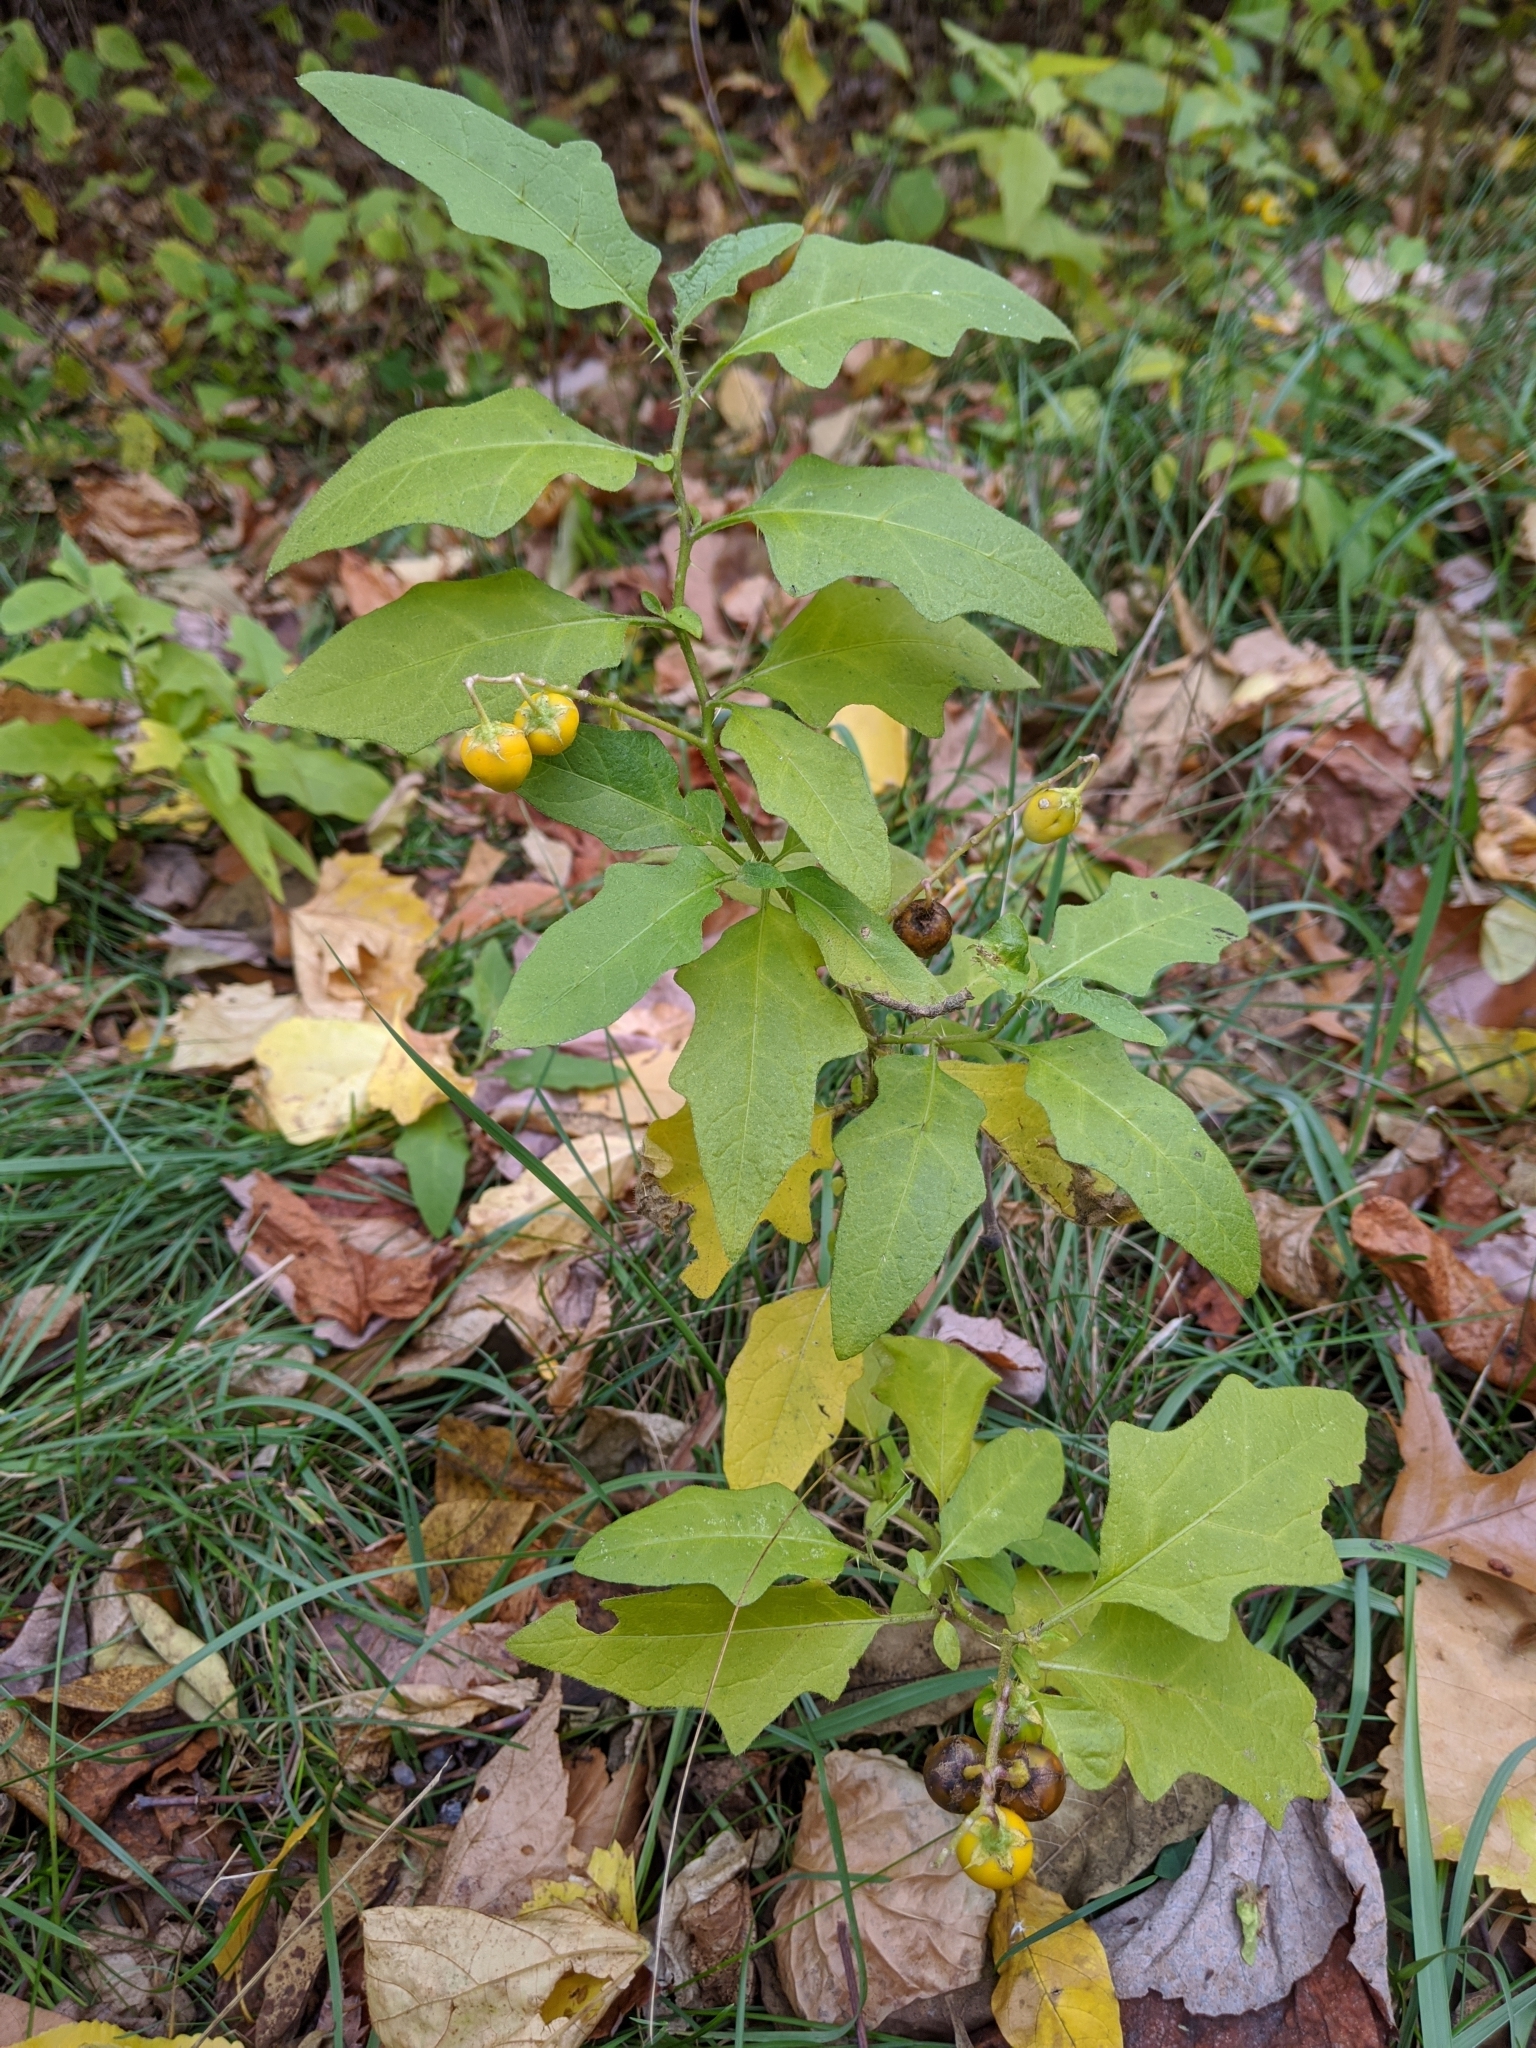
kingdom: Plantae
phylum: Tracheophyta
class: Magnoliopsida
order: Solanales
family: Solanaceae
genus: Solanum
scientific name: Solanum carolinense
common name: Horse-nettle
